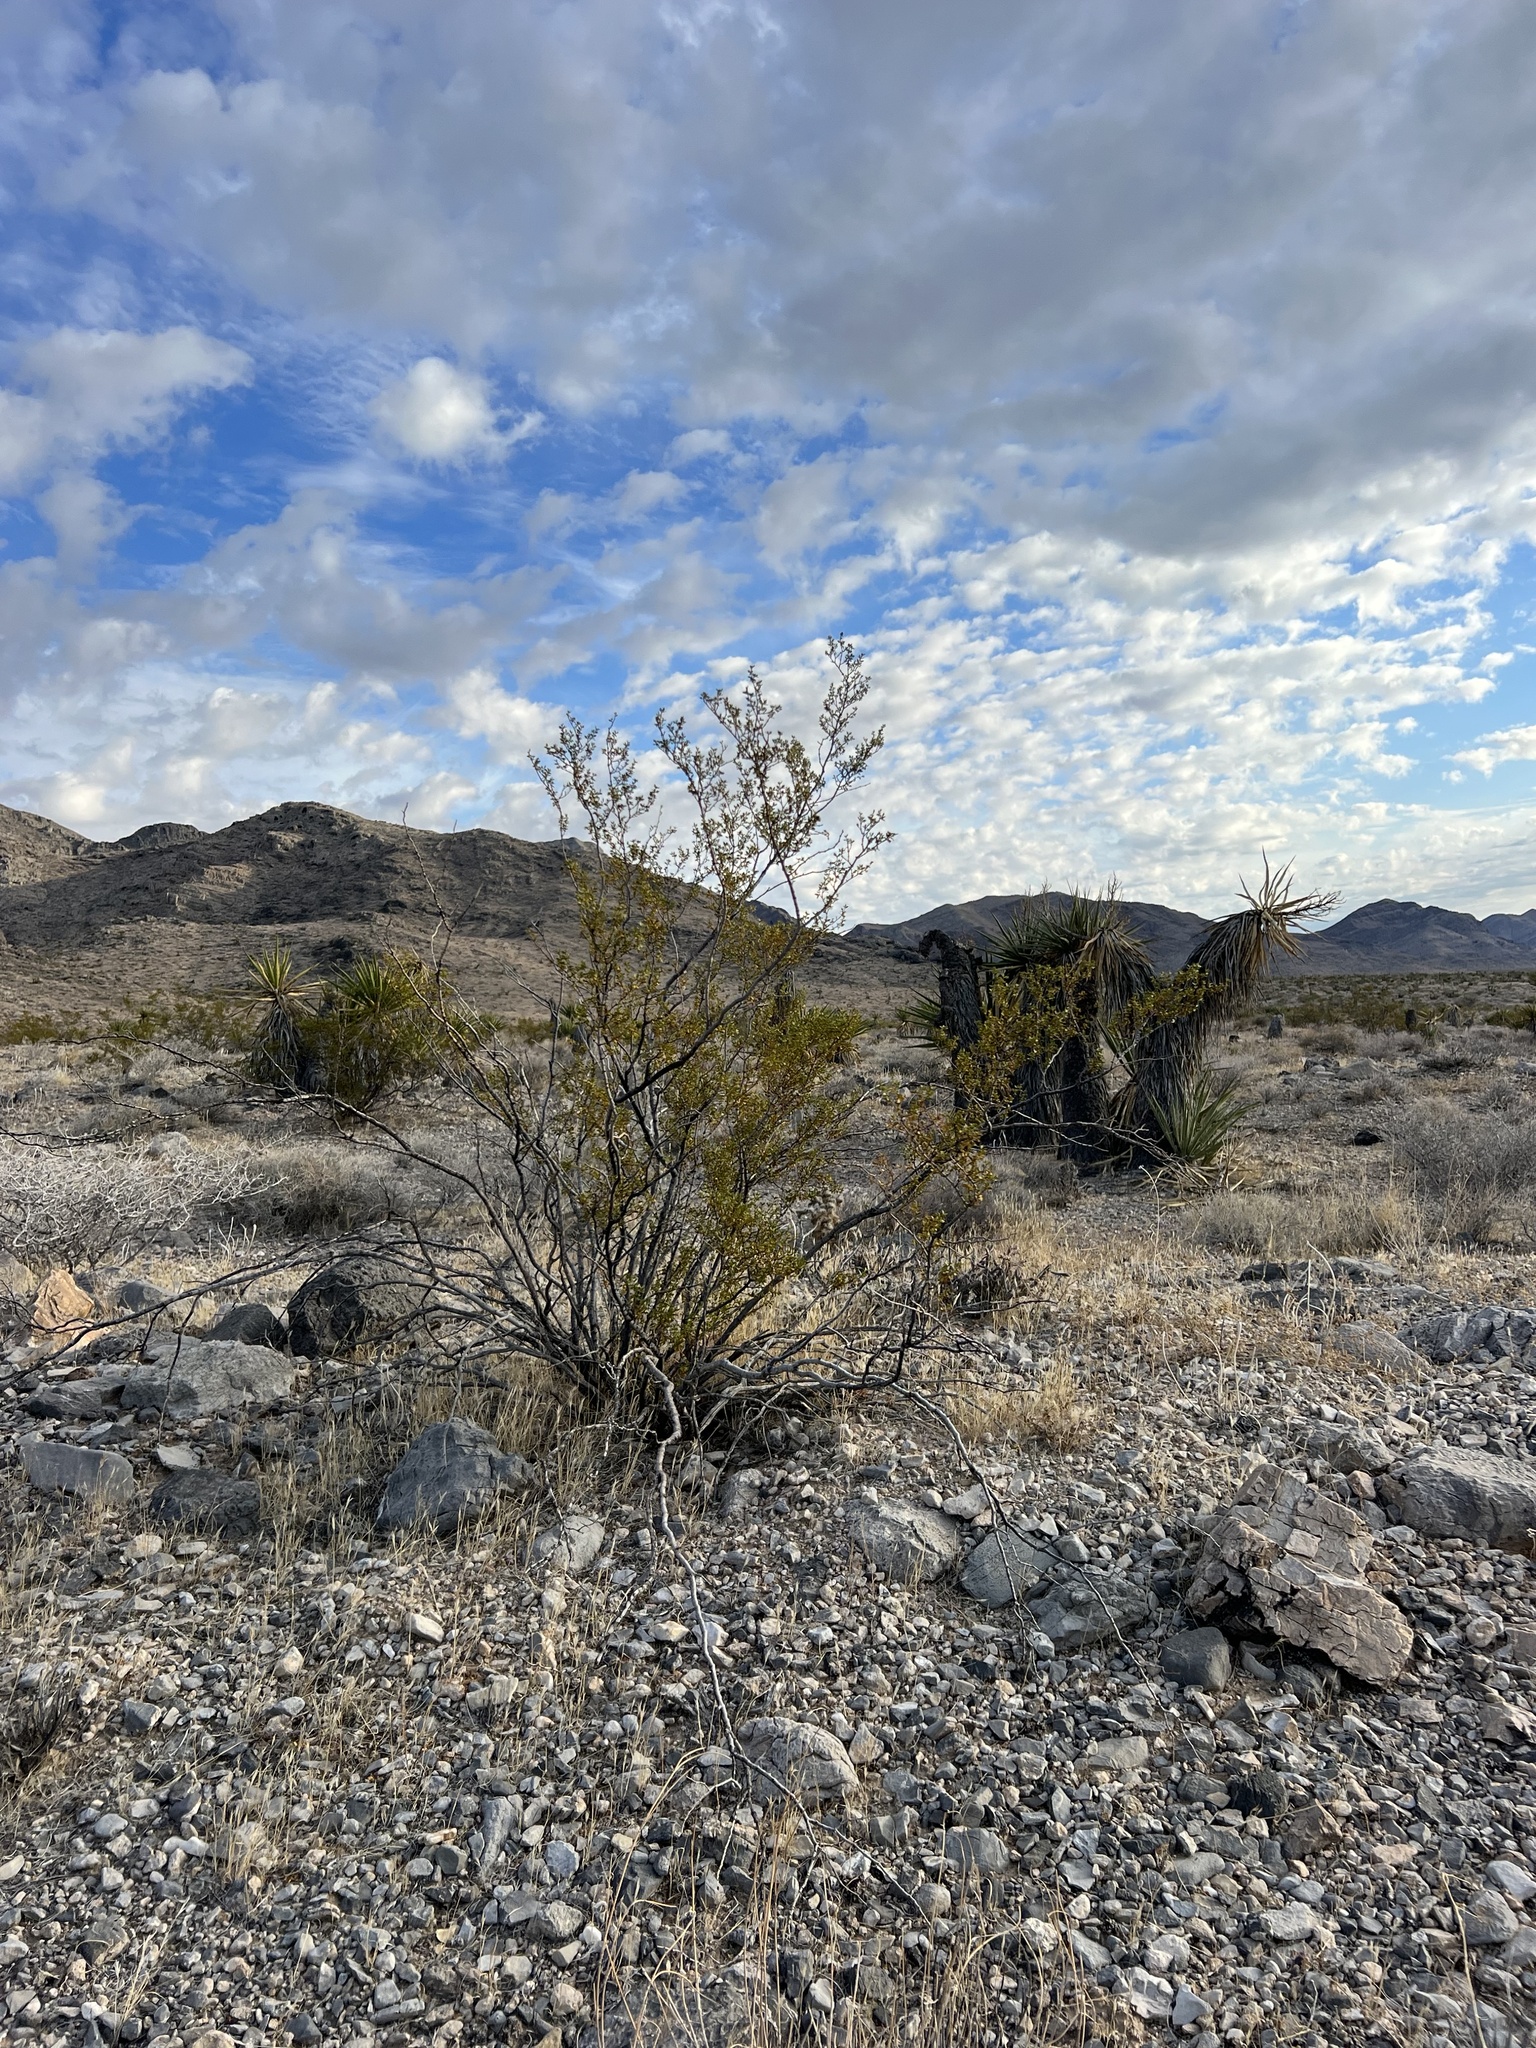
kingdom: Plantae
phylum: Tracheophyta
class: Magnoliopsida
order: Zygophyllales
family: Zygophyllaceae
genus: Larrea
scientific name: Larrea tridentata
